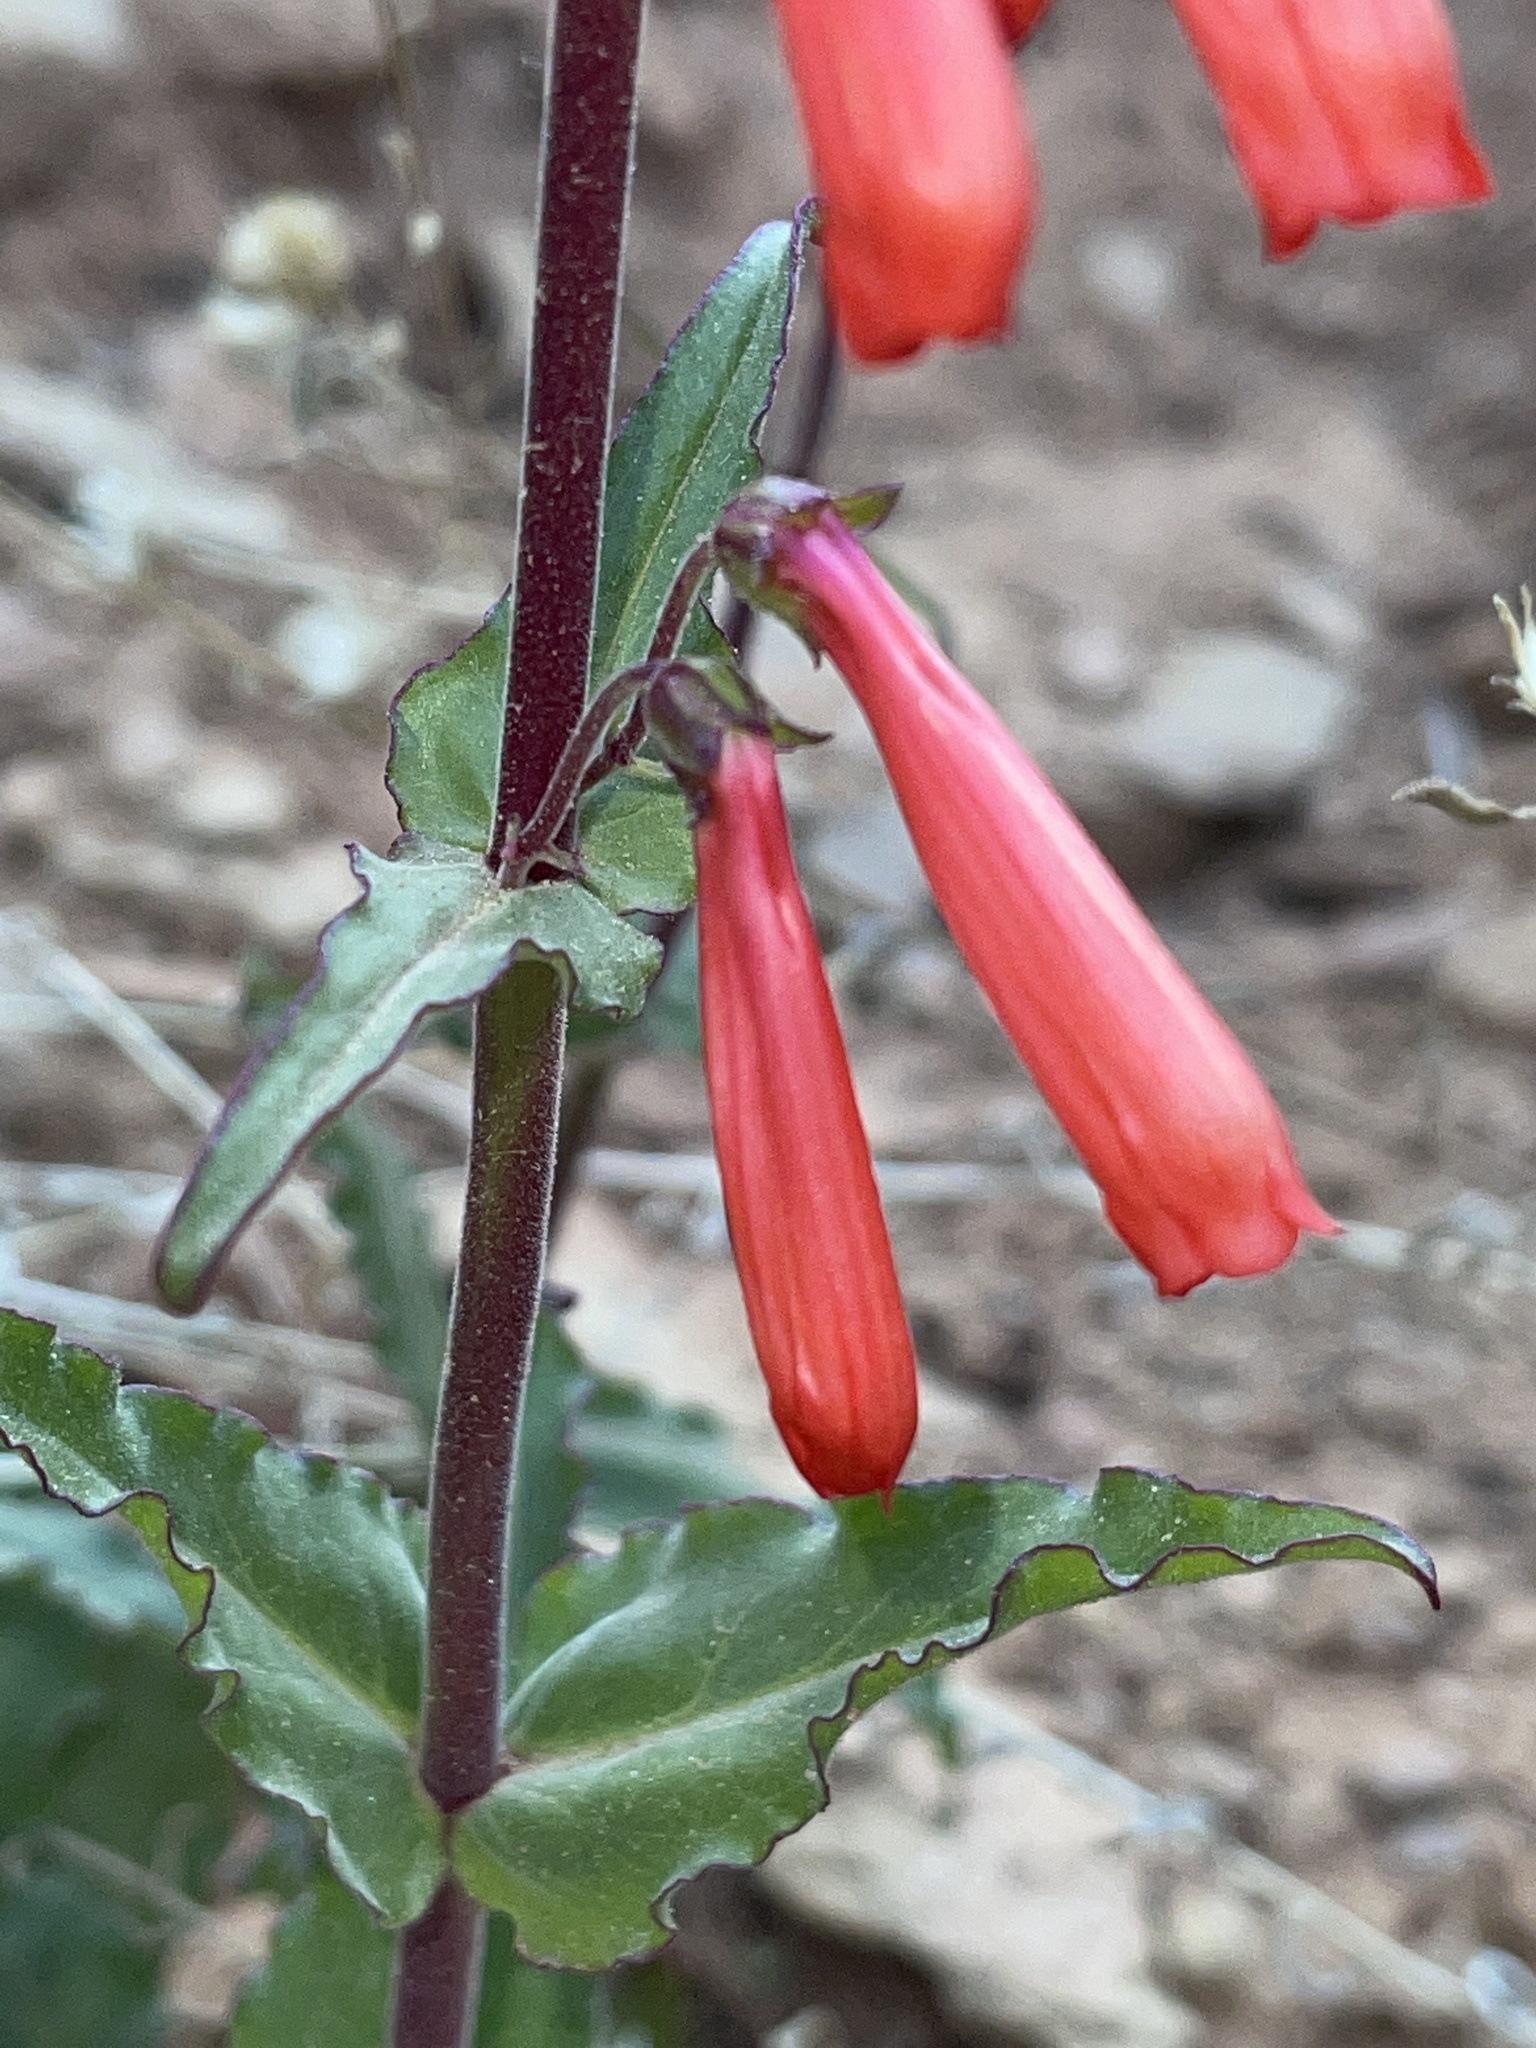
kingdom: Plantae
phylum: Tracheophyta
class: Magnoliopsida
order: Lamiales
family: Plantaginaceae
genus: Penstemon
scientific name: Penstemon eatonii
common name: Eaton's penstemon
